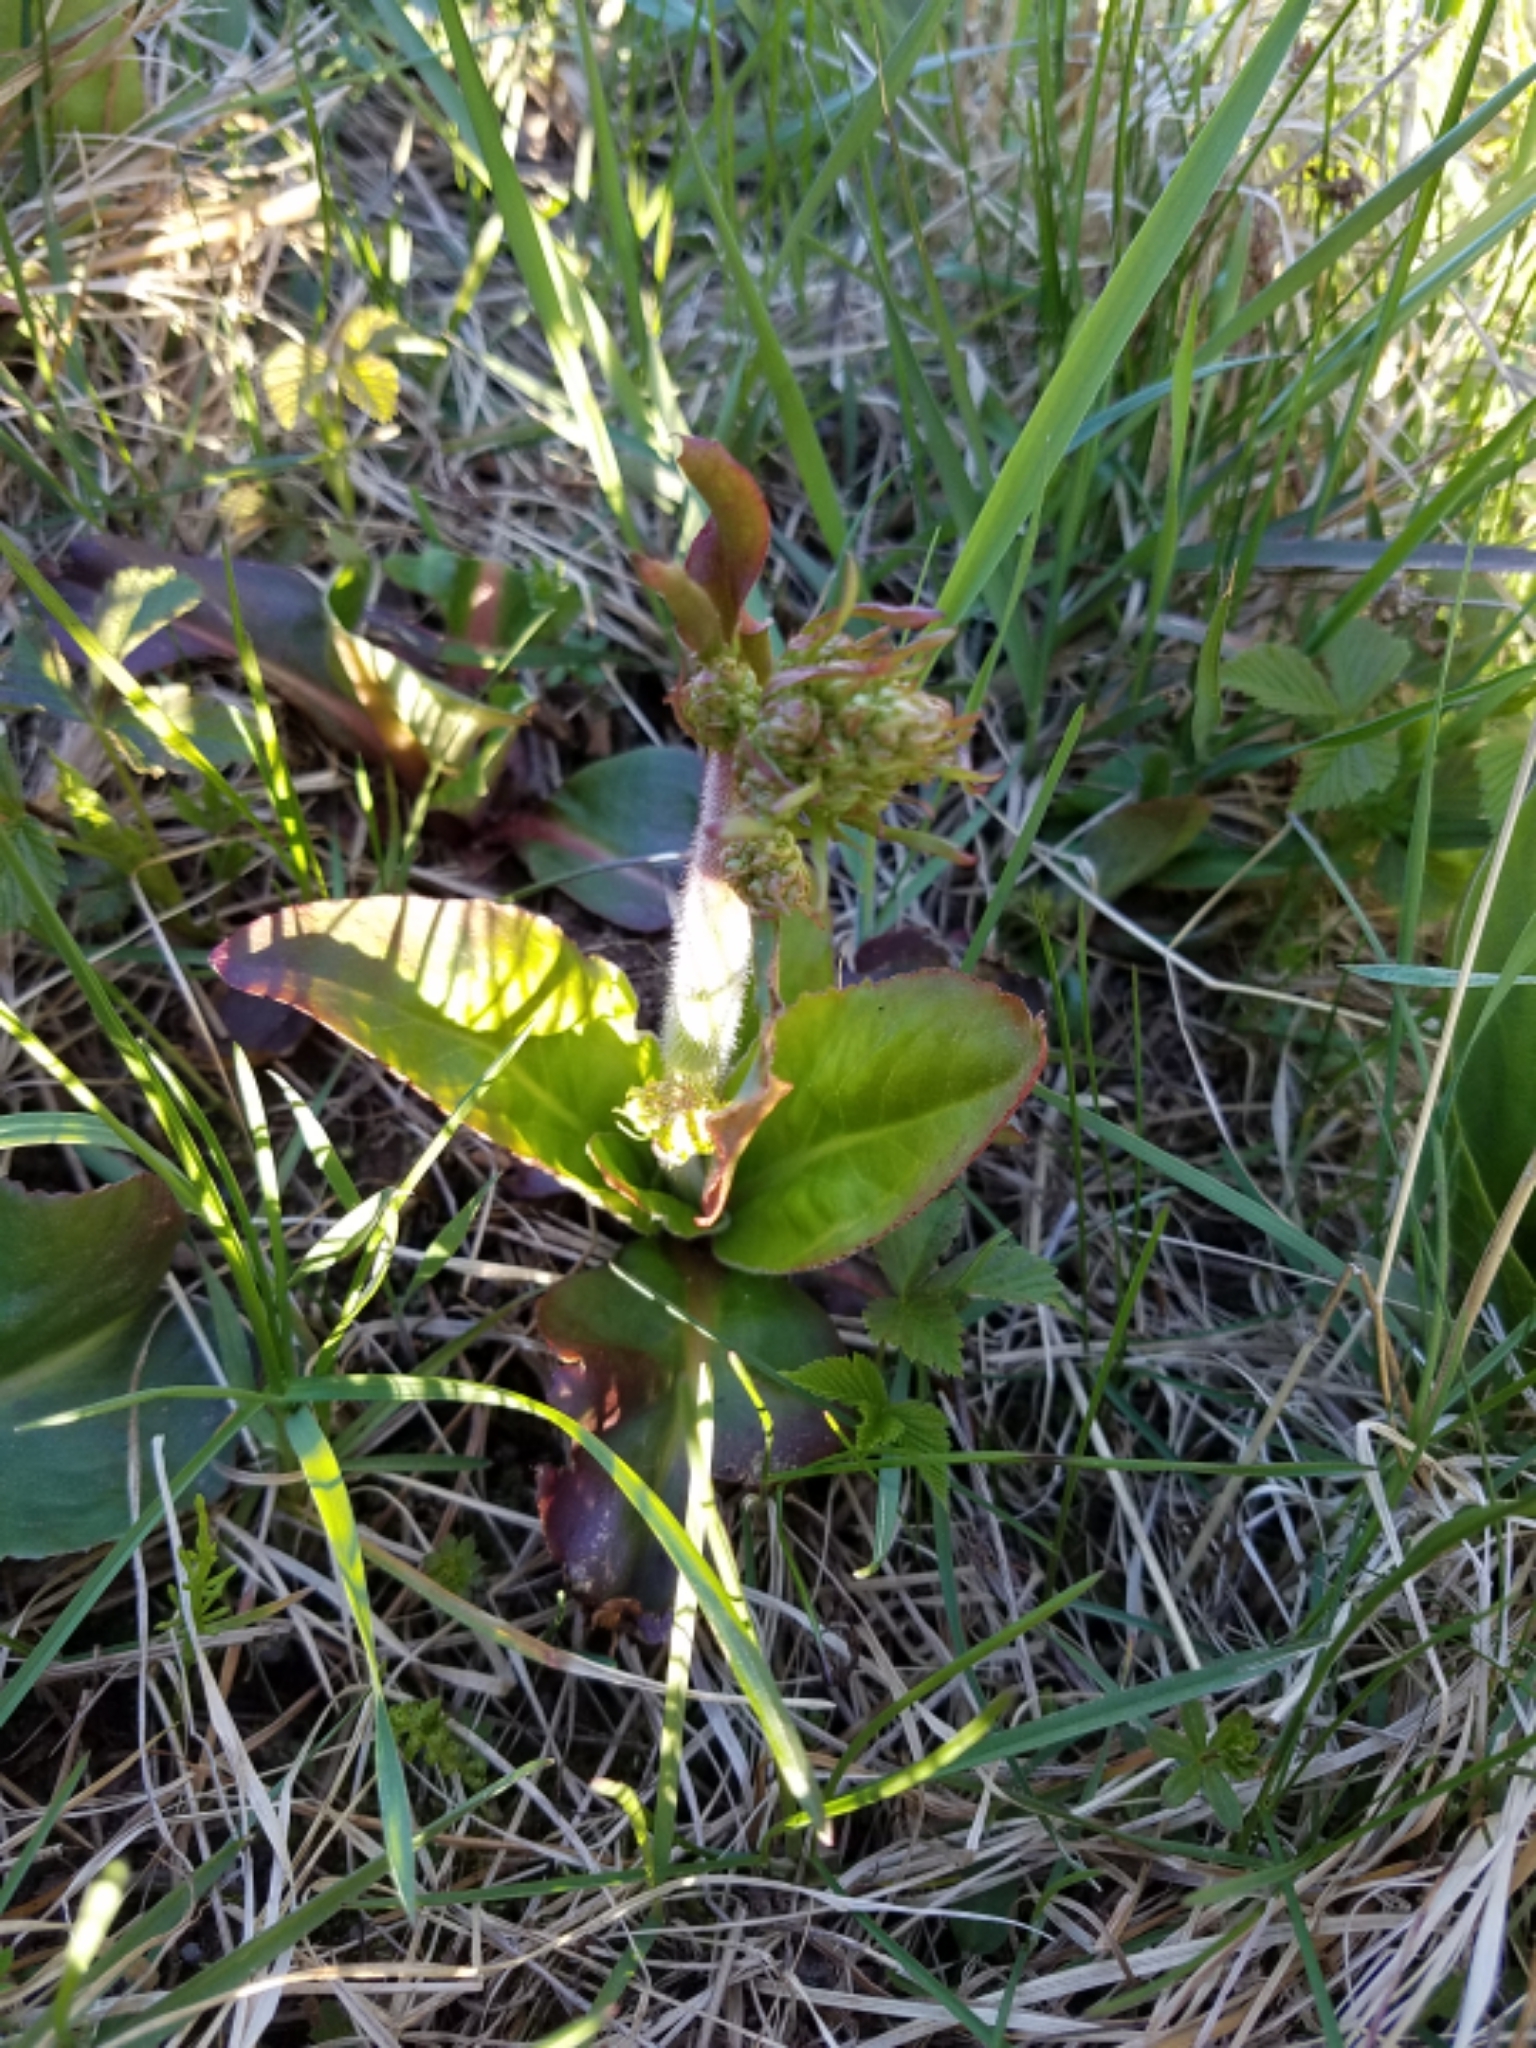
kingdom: Plantae
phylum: Tracheophyta
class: Magnoliopsida
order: Saxifragales
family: Saxifragaceae
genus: Micranthes
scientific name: Micranthes pensylvanica
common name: Marsh saxifrage
